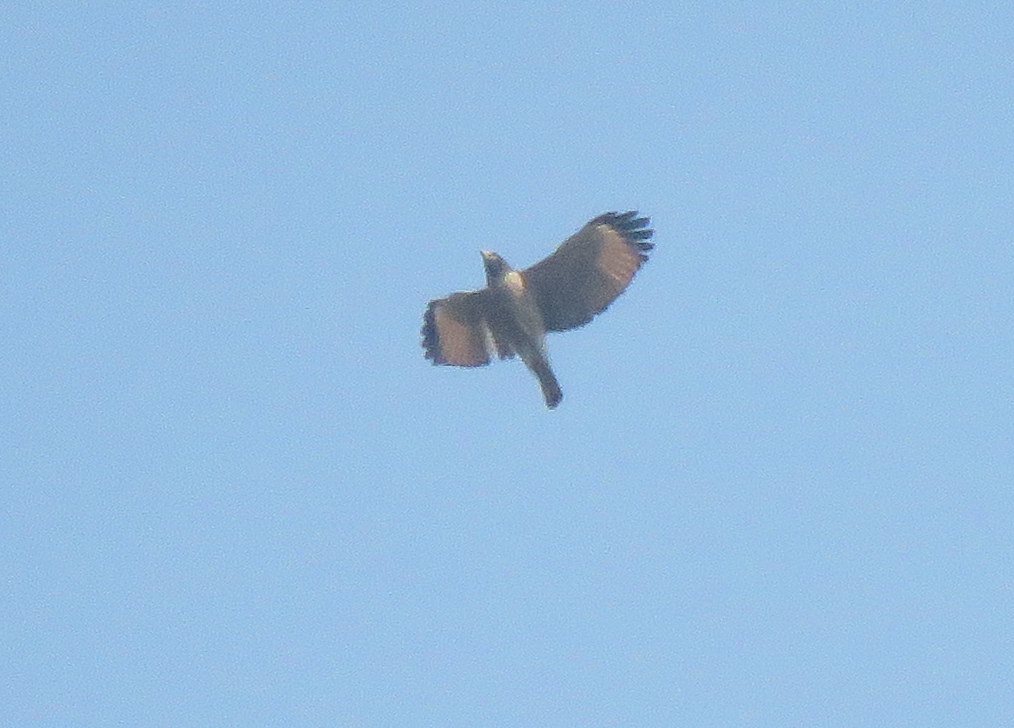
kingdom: Animalia
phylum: Chordata
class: Aves
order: Accipitriformes
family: Accipitridae
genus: Rupornis
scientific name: Rupornis magnirostris
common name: Roadside hawk
